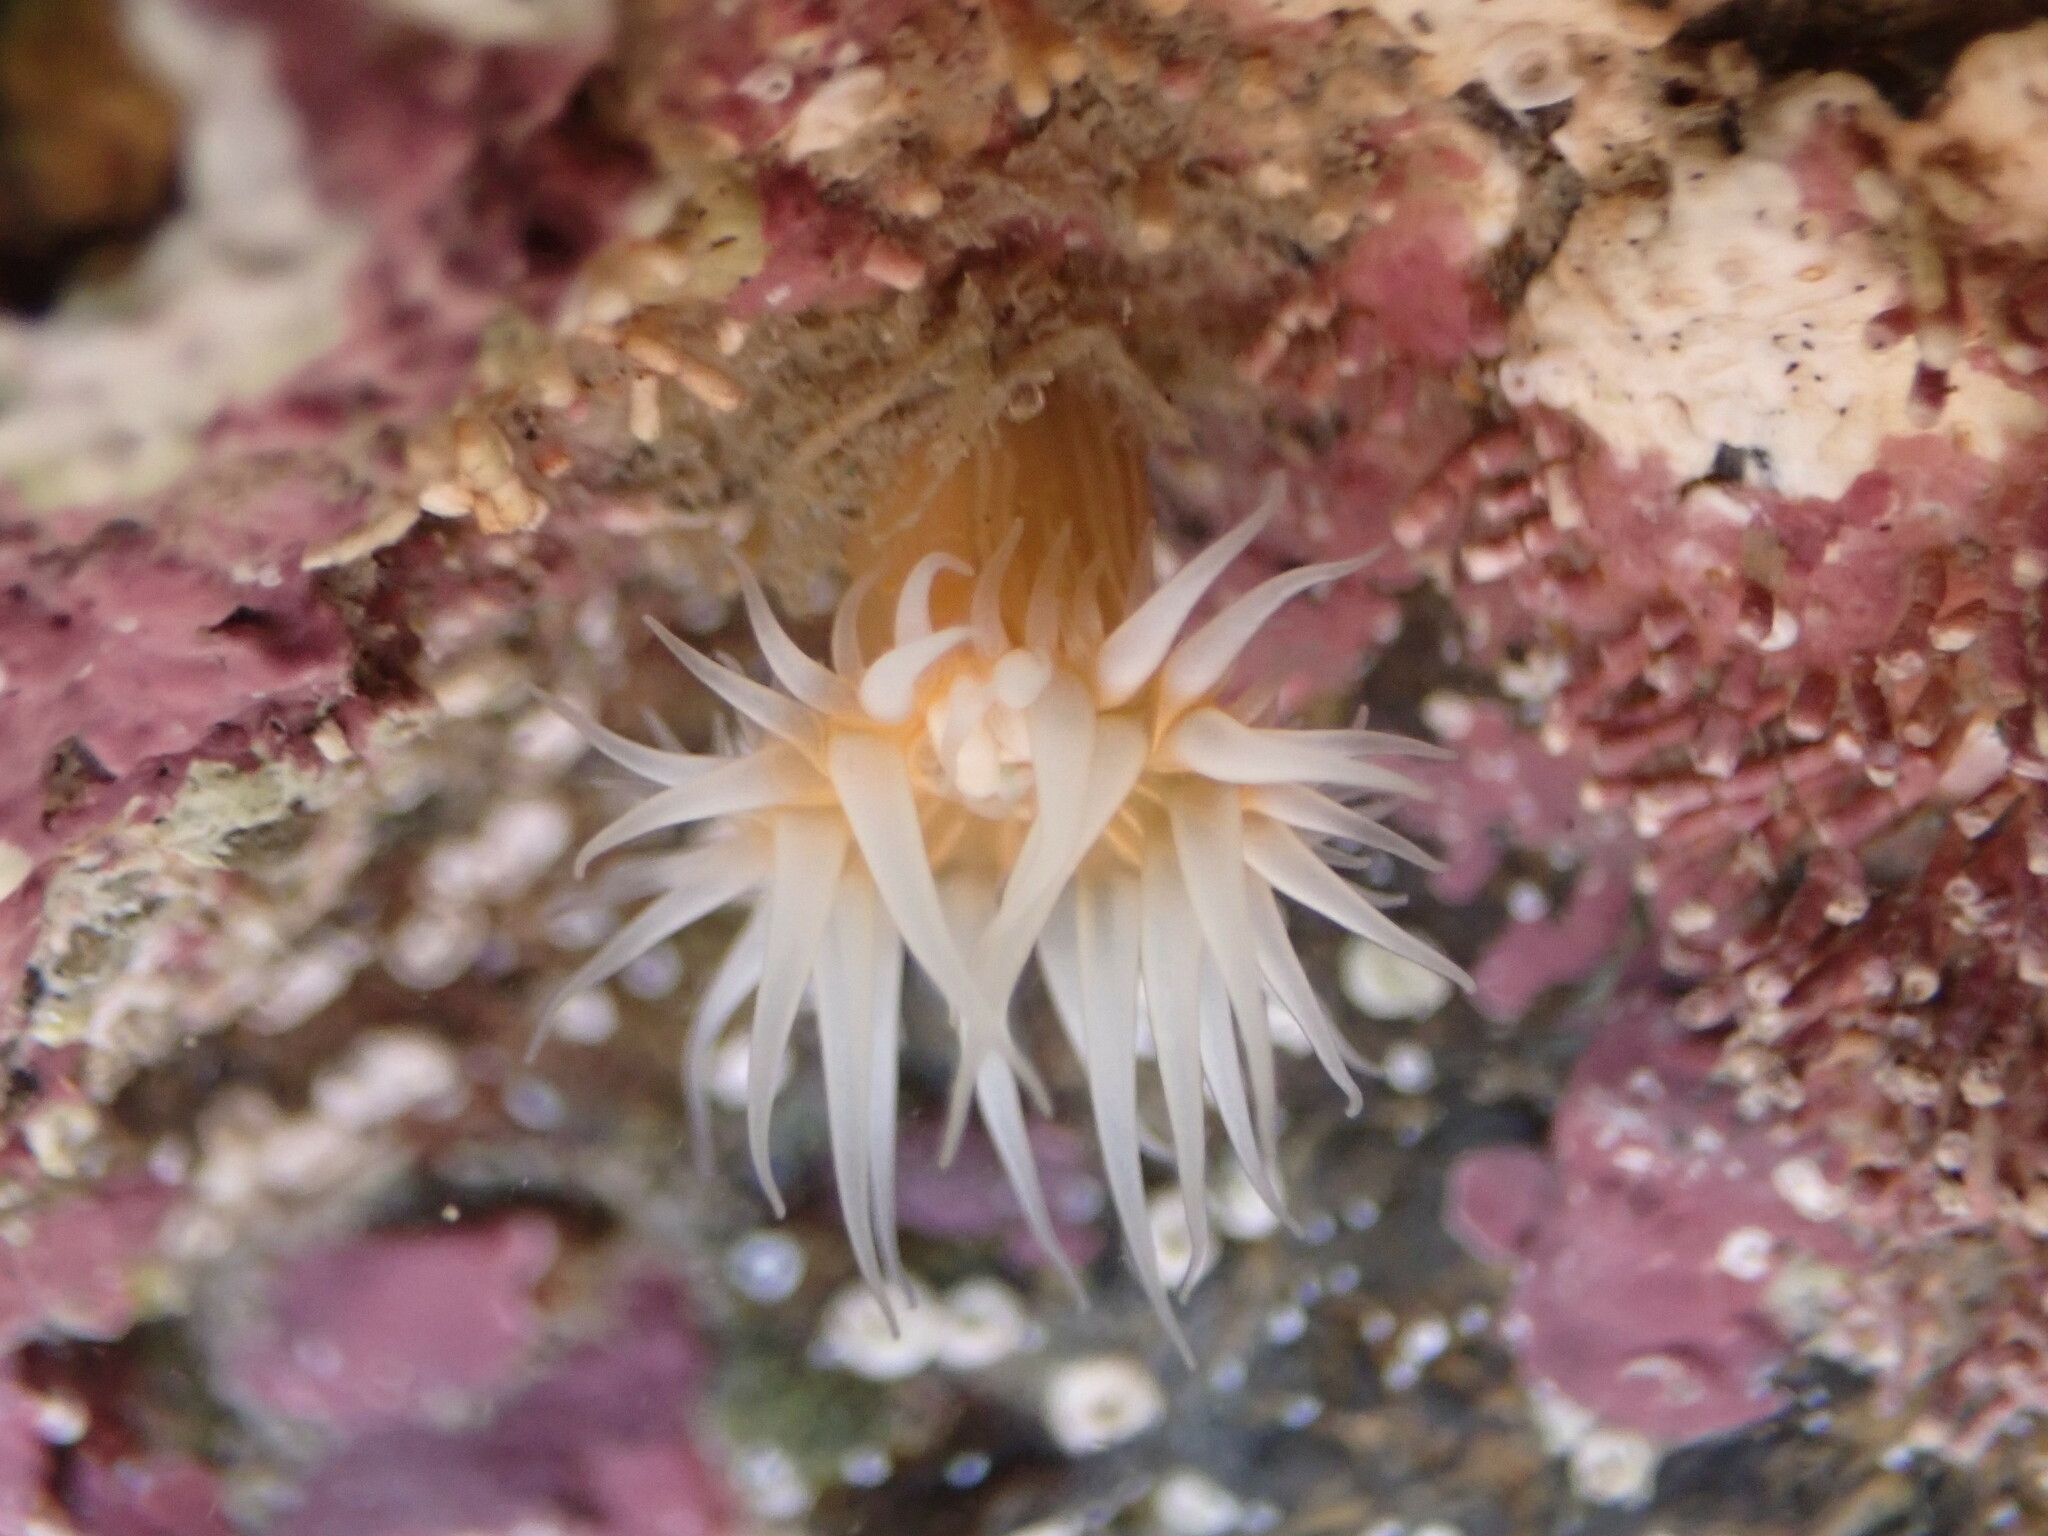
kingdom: Animalia
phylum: Cnidaria
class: Anthozoa
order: Actiniaria
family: Sagartiidae
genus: Anthothoe
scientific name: Anthothoe albocincta
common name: Orange striped anemone
